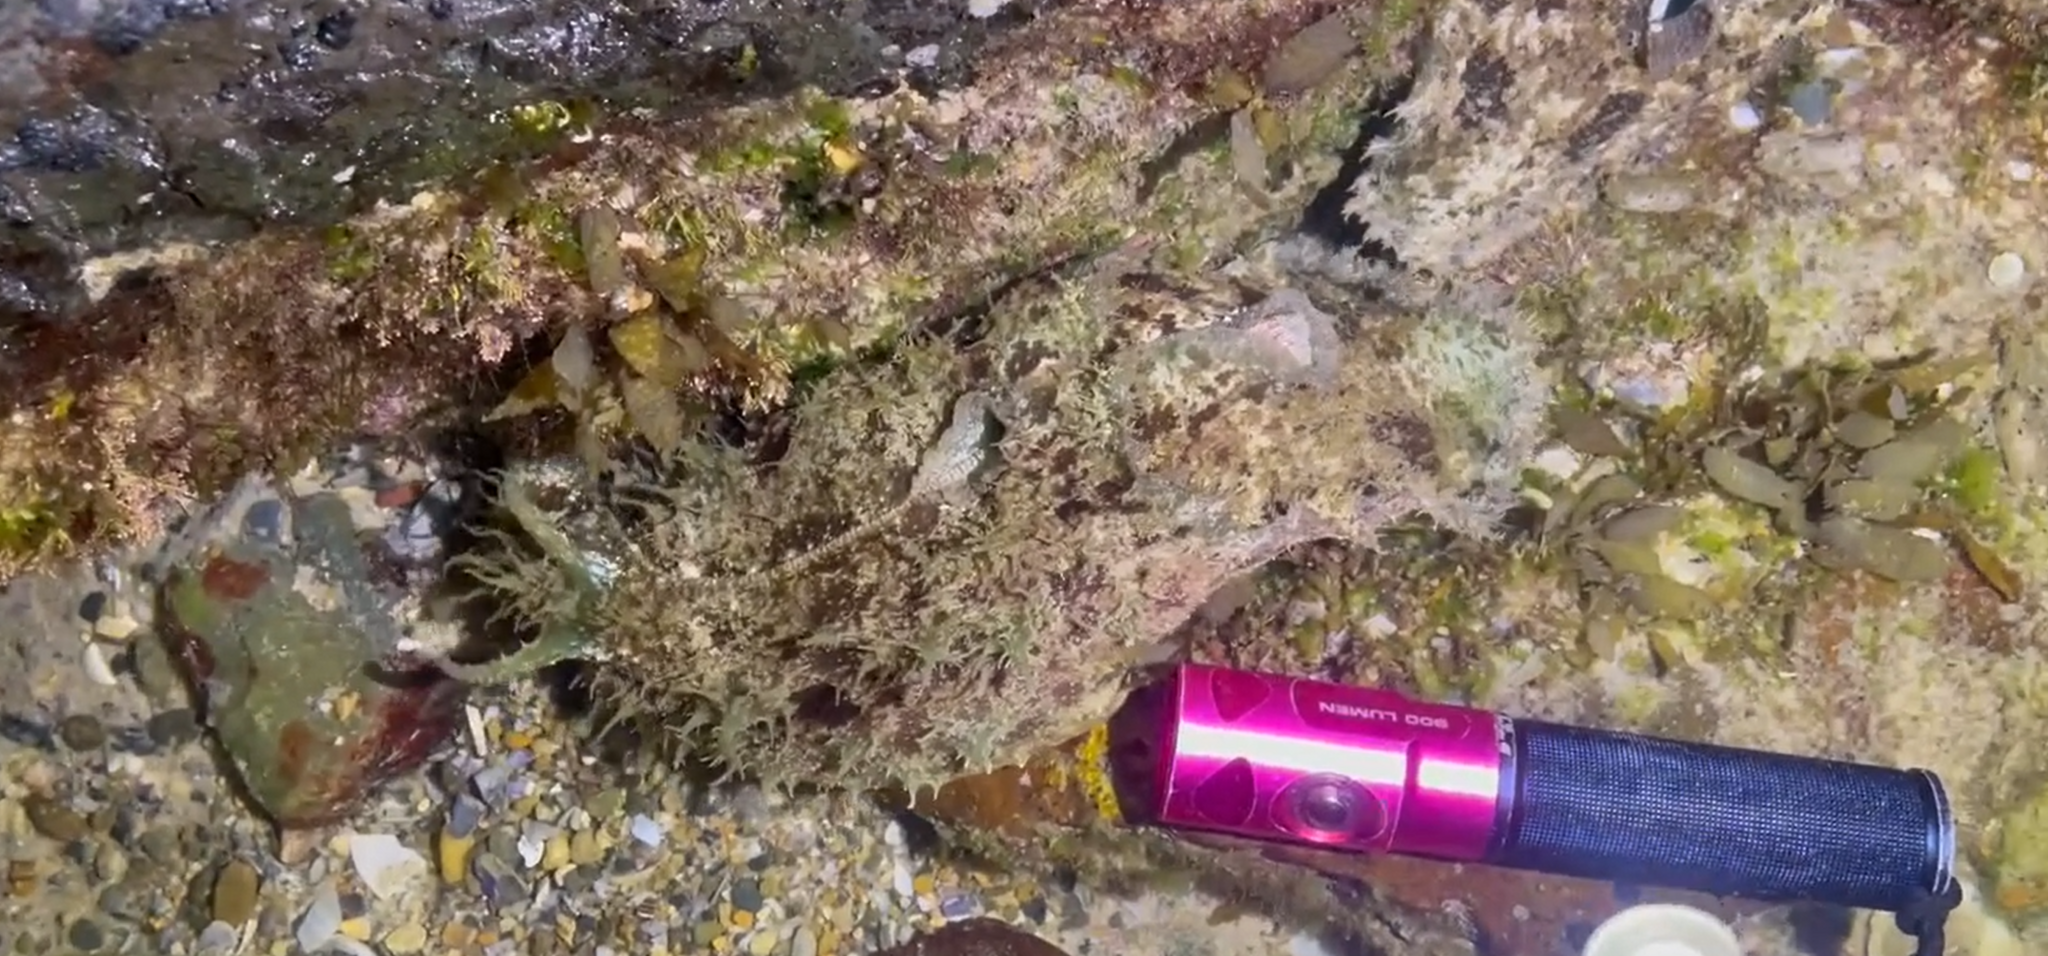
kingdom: Animalia
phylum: Mollusca
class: Gastropoda
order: Aplysiida
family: Aplysiidae
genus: Dolabella
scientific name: Dolabella auricularia
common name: Blunt-end seahare
